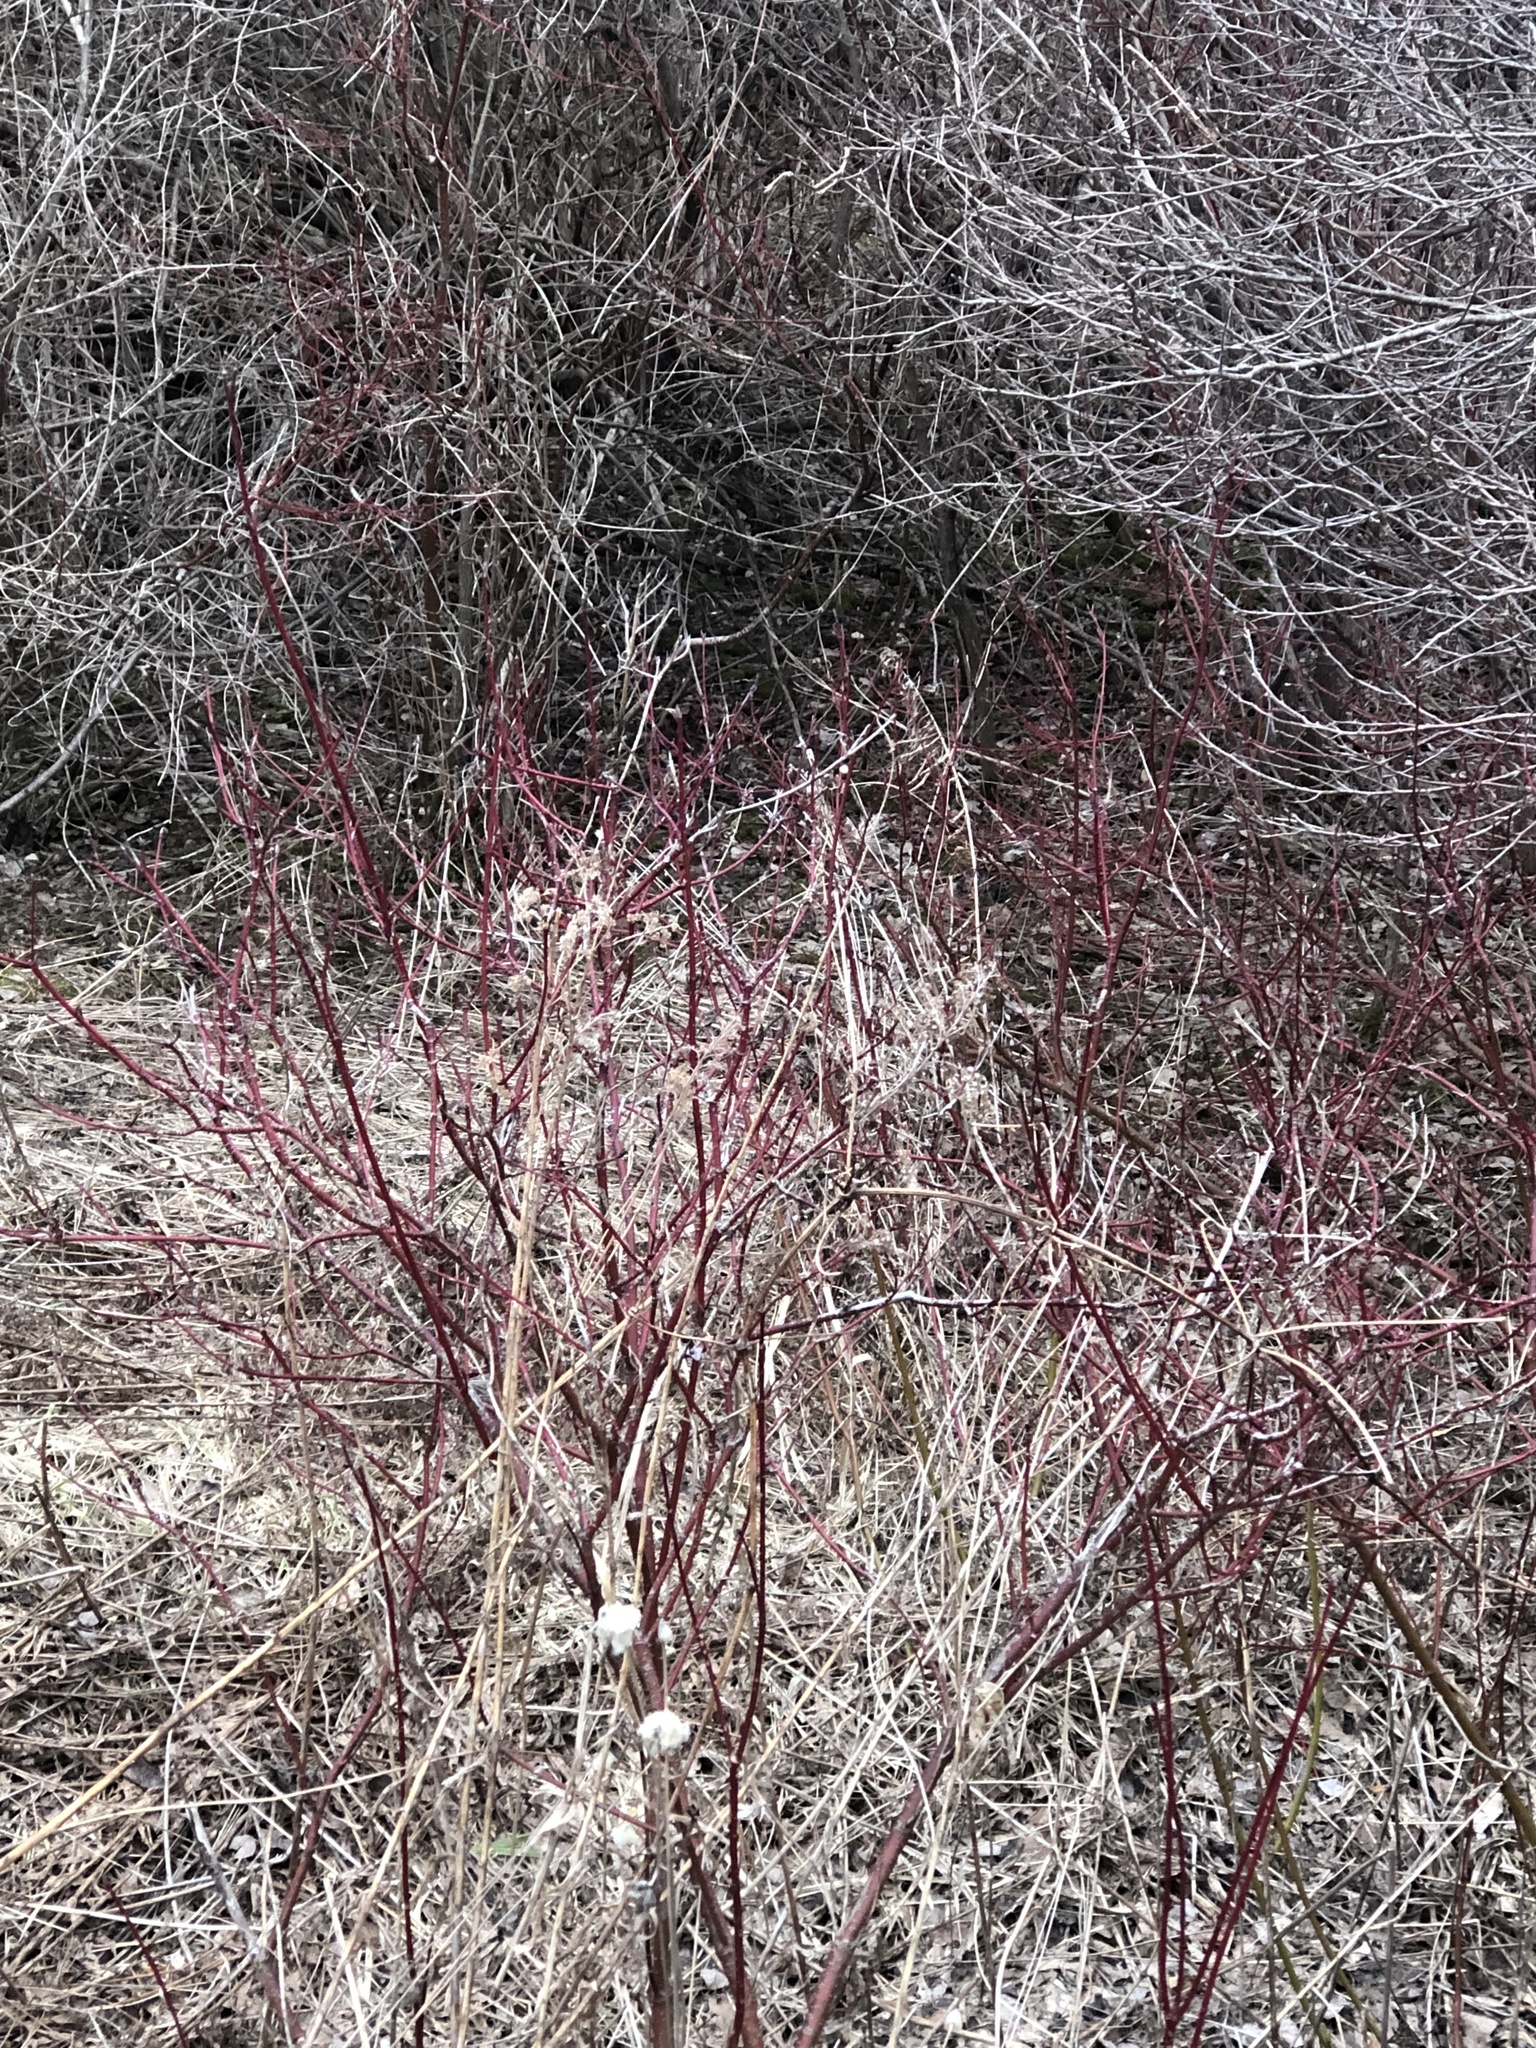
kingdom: Plantae
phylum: Tracheophyta
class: Magnoliopsida
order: Cornales
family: Cornaceae
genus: Cornus
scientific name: Cornus sericea
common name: Red-osier dogwood
